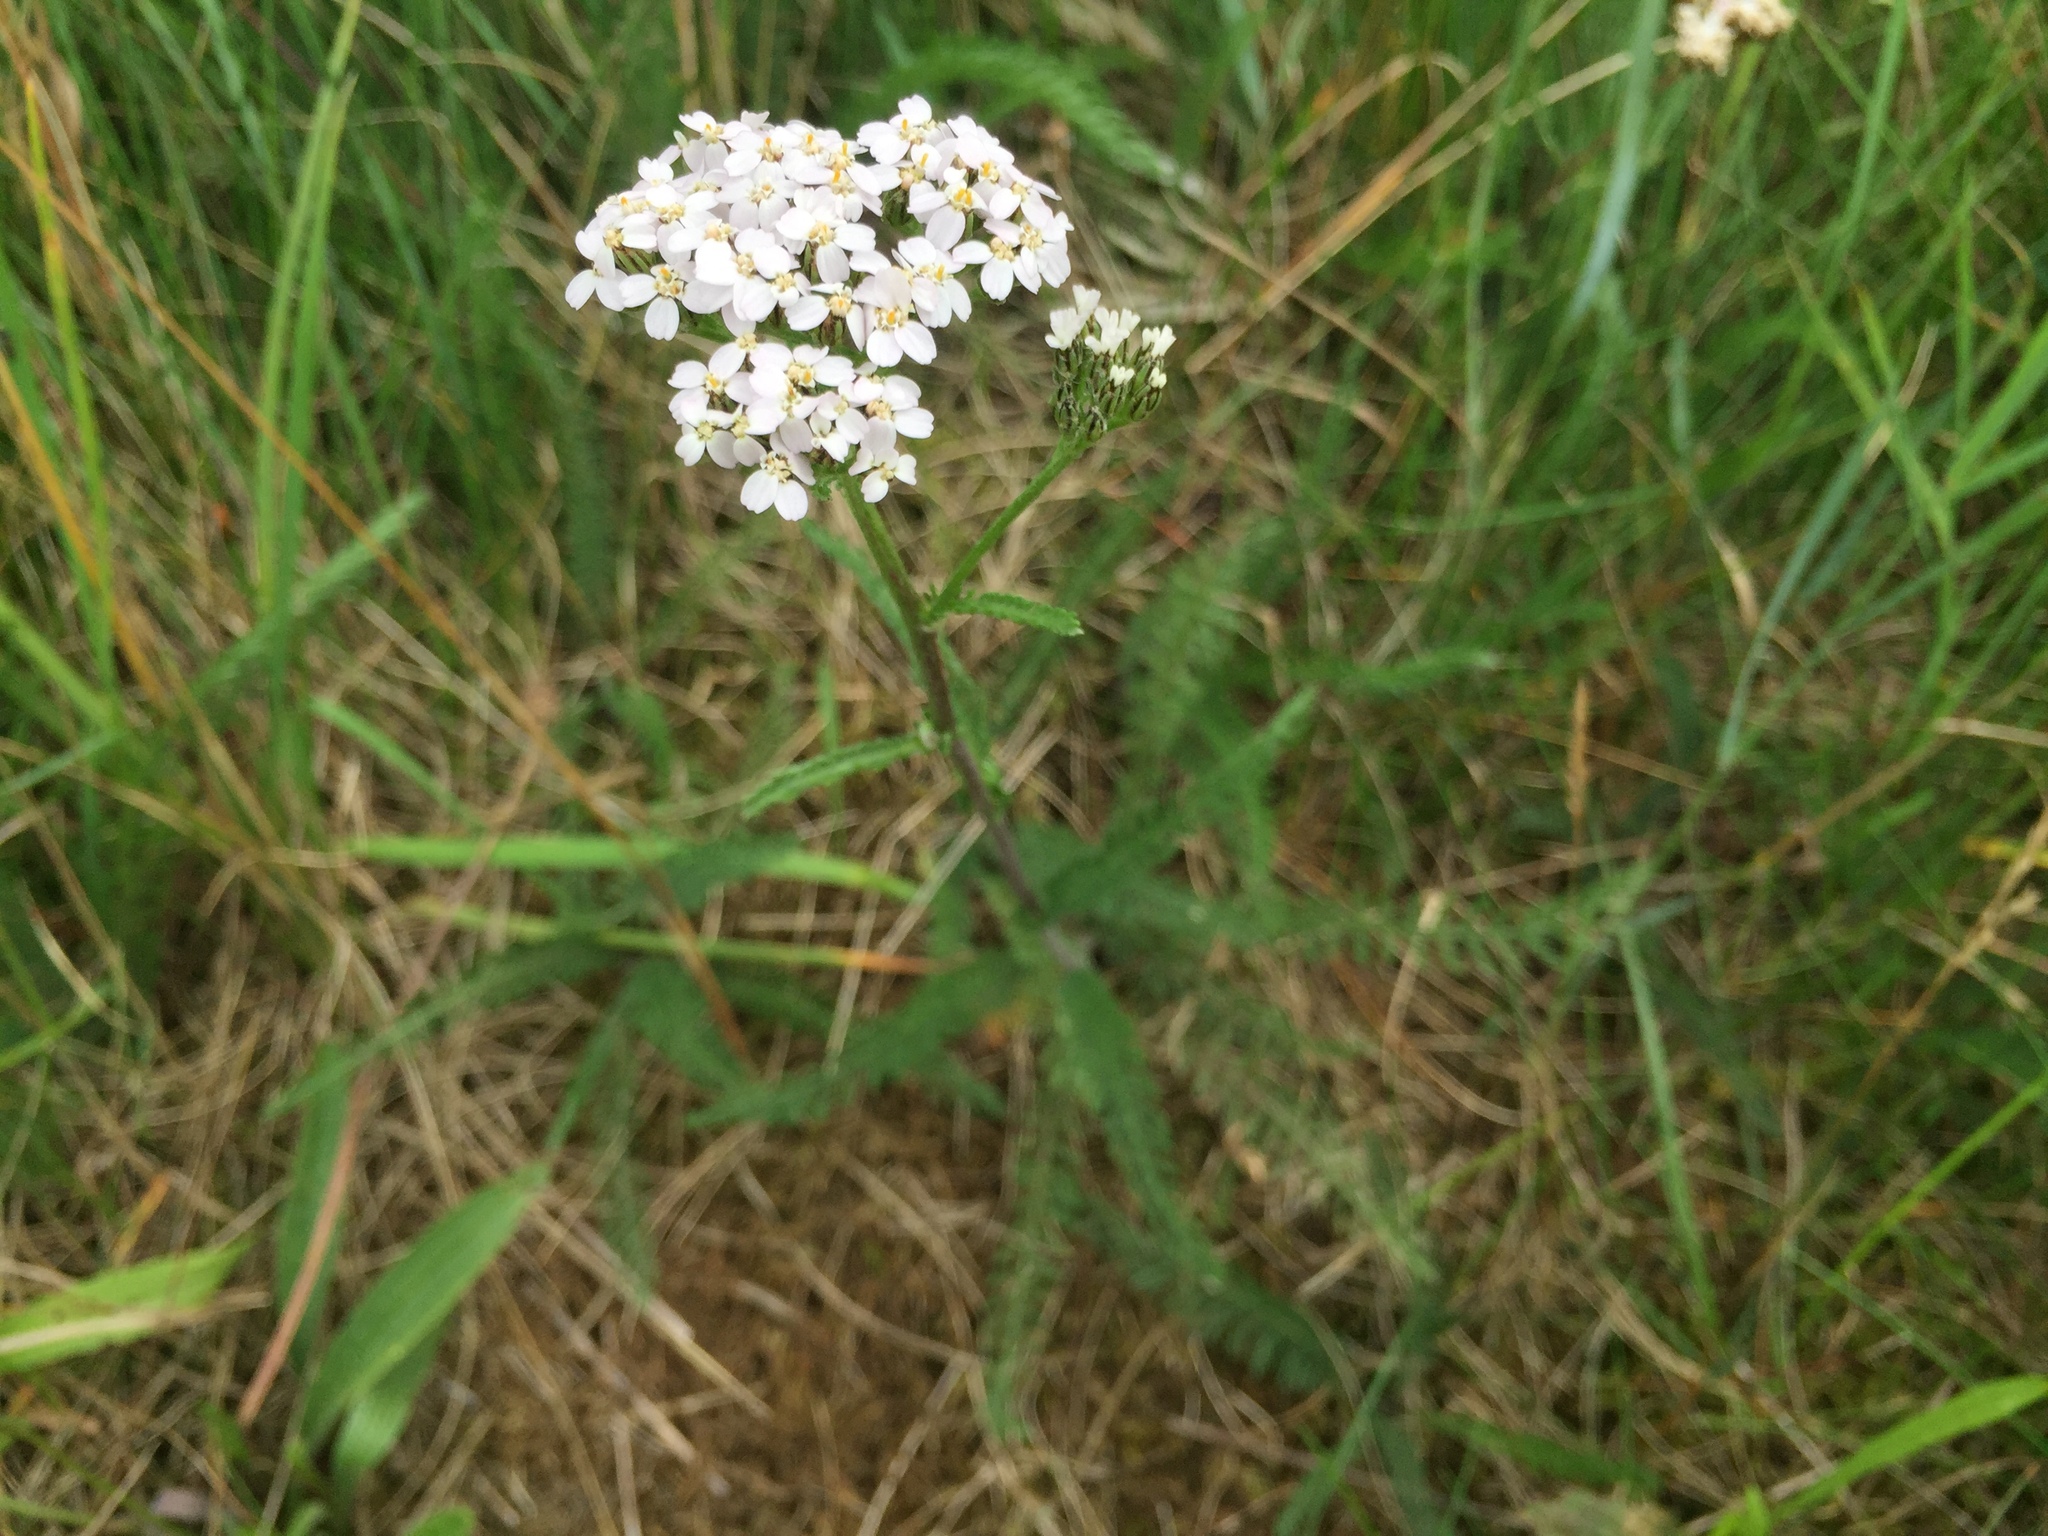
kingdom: Plantae
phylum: Tracheophyta
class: Magnoliopsida
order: Asterales
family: Asteraceae
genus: Achillea
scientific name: Achillea millefolium
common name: Yarrow
